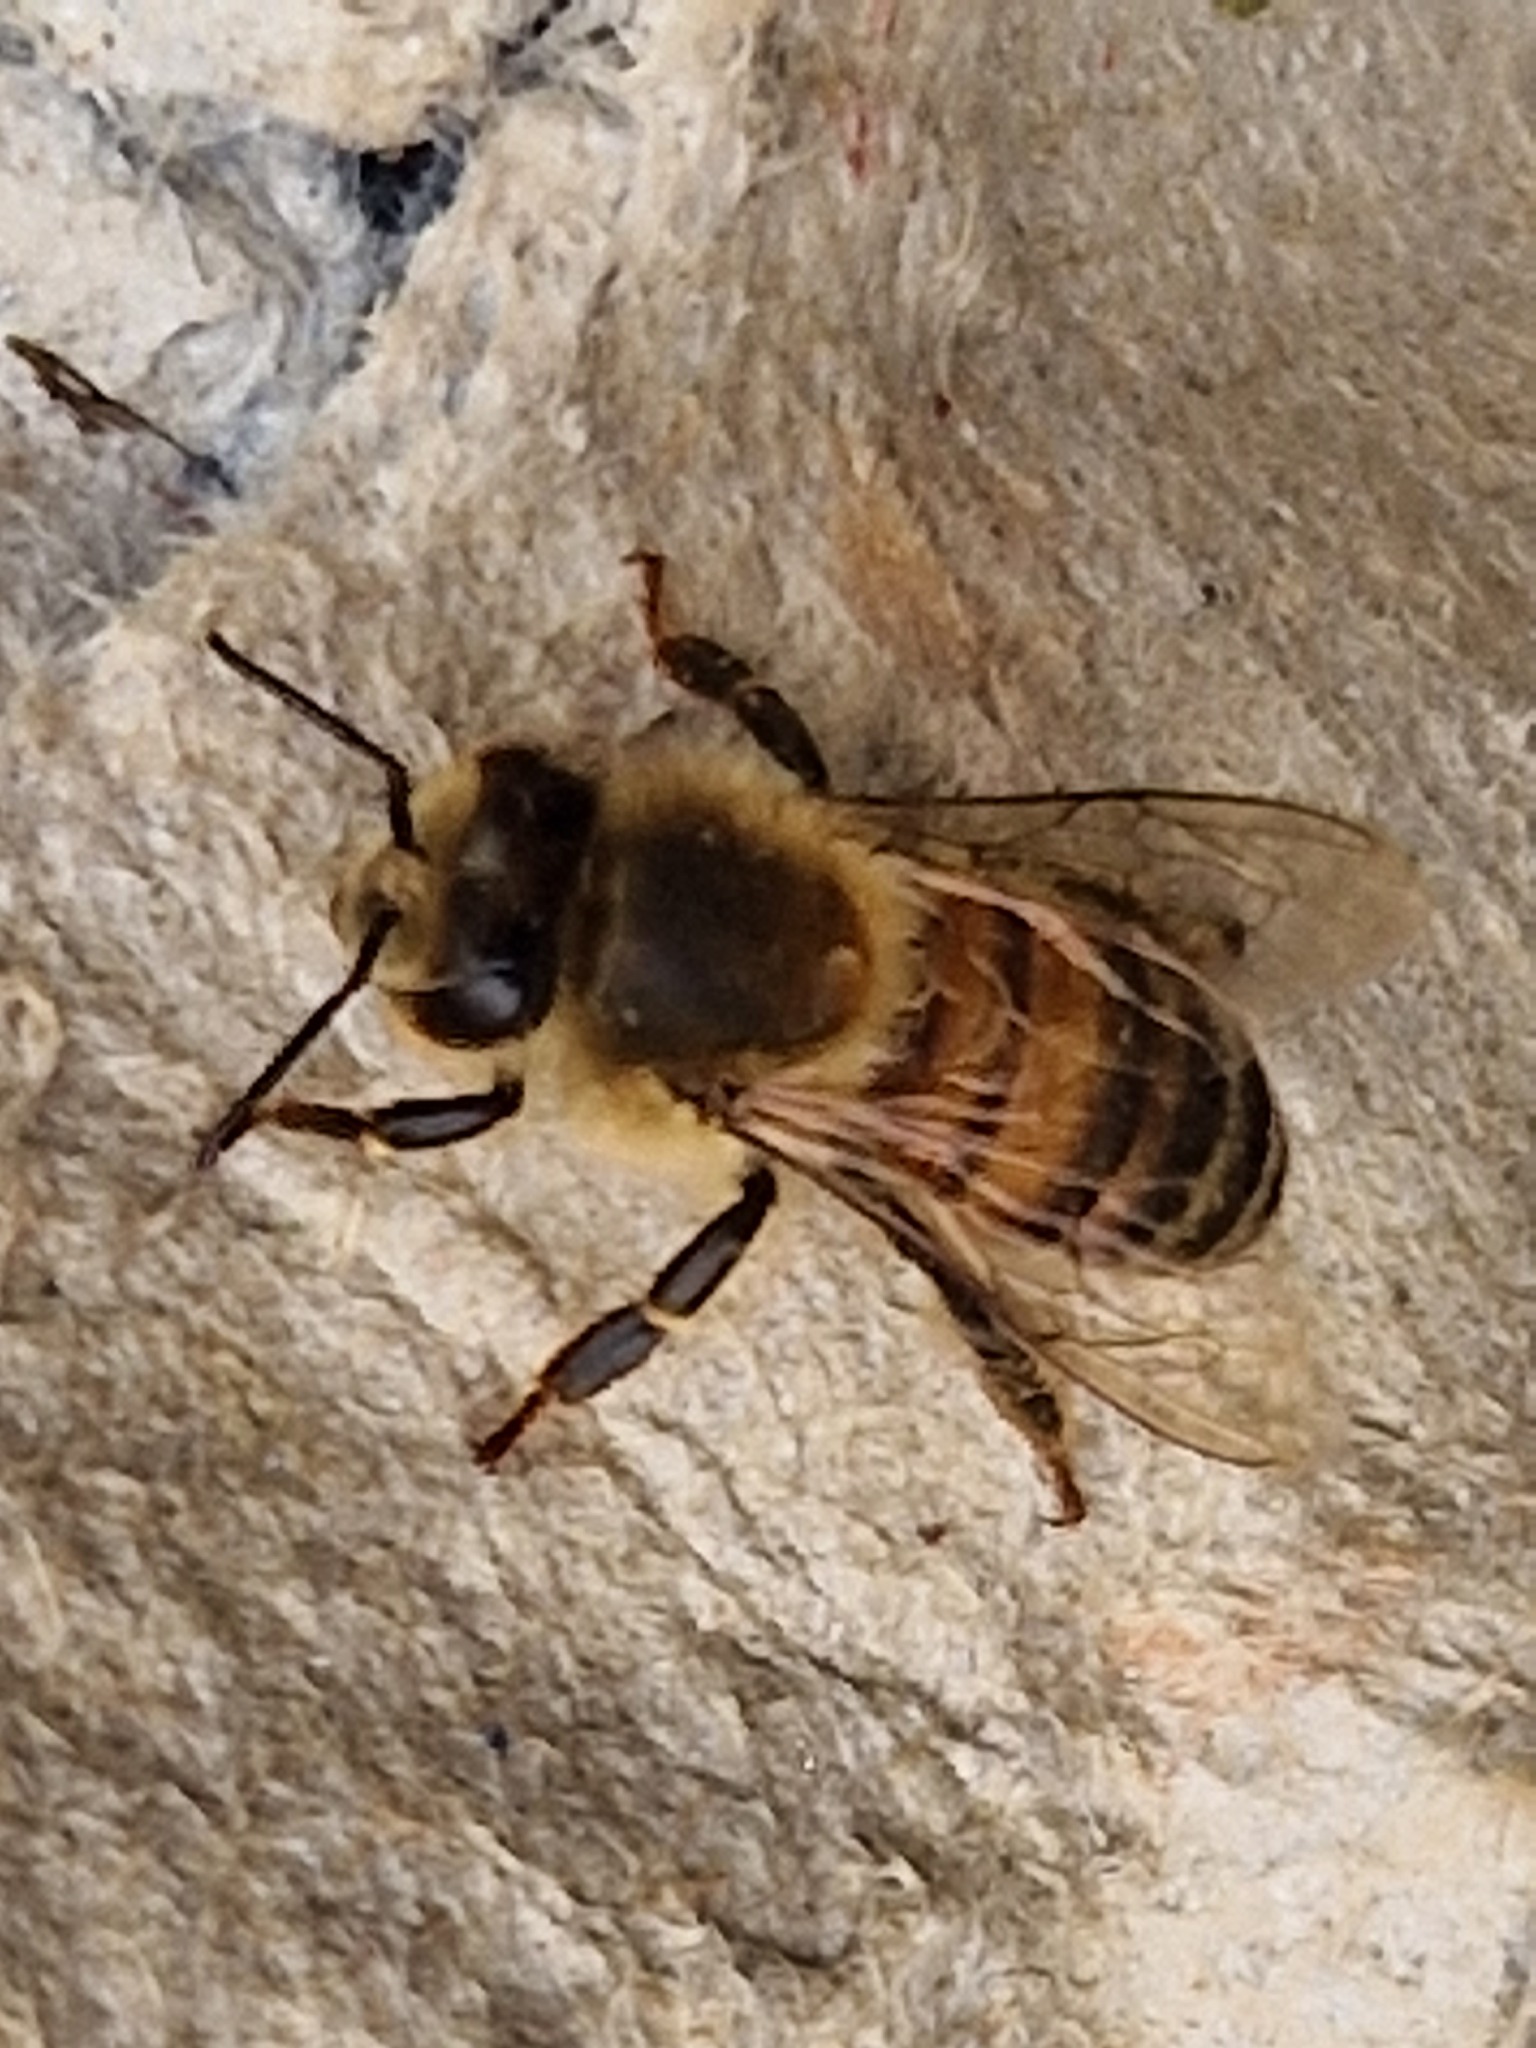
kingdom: Animalia
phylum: Arthropoda
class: Insecta
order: Hymenoptera
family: Apidae
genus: Apis
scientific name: Apis mellifera
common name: Honey bee
